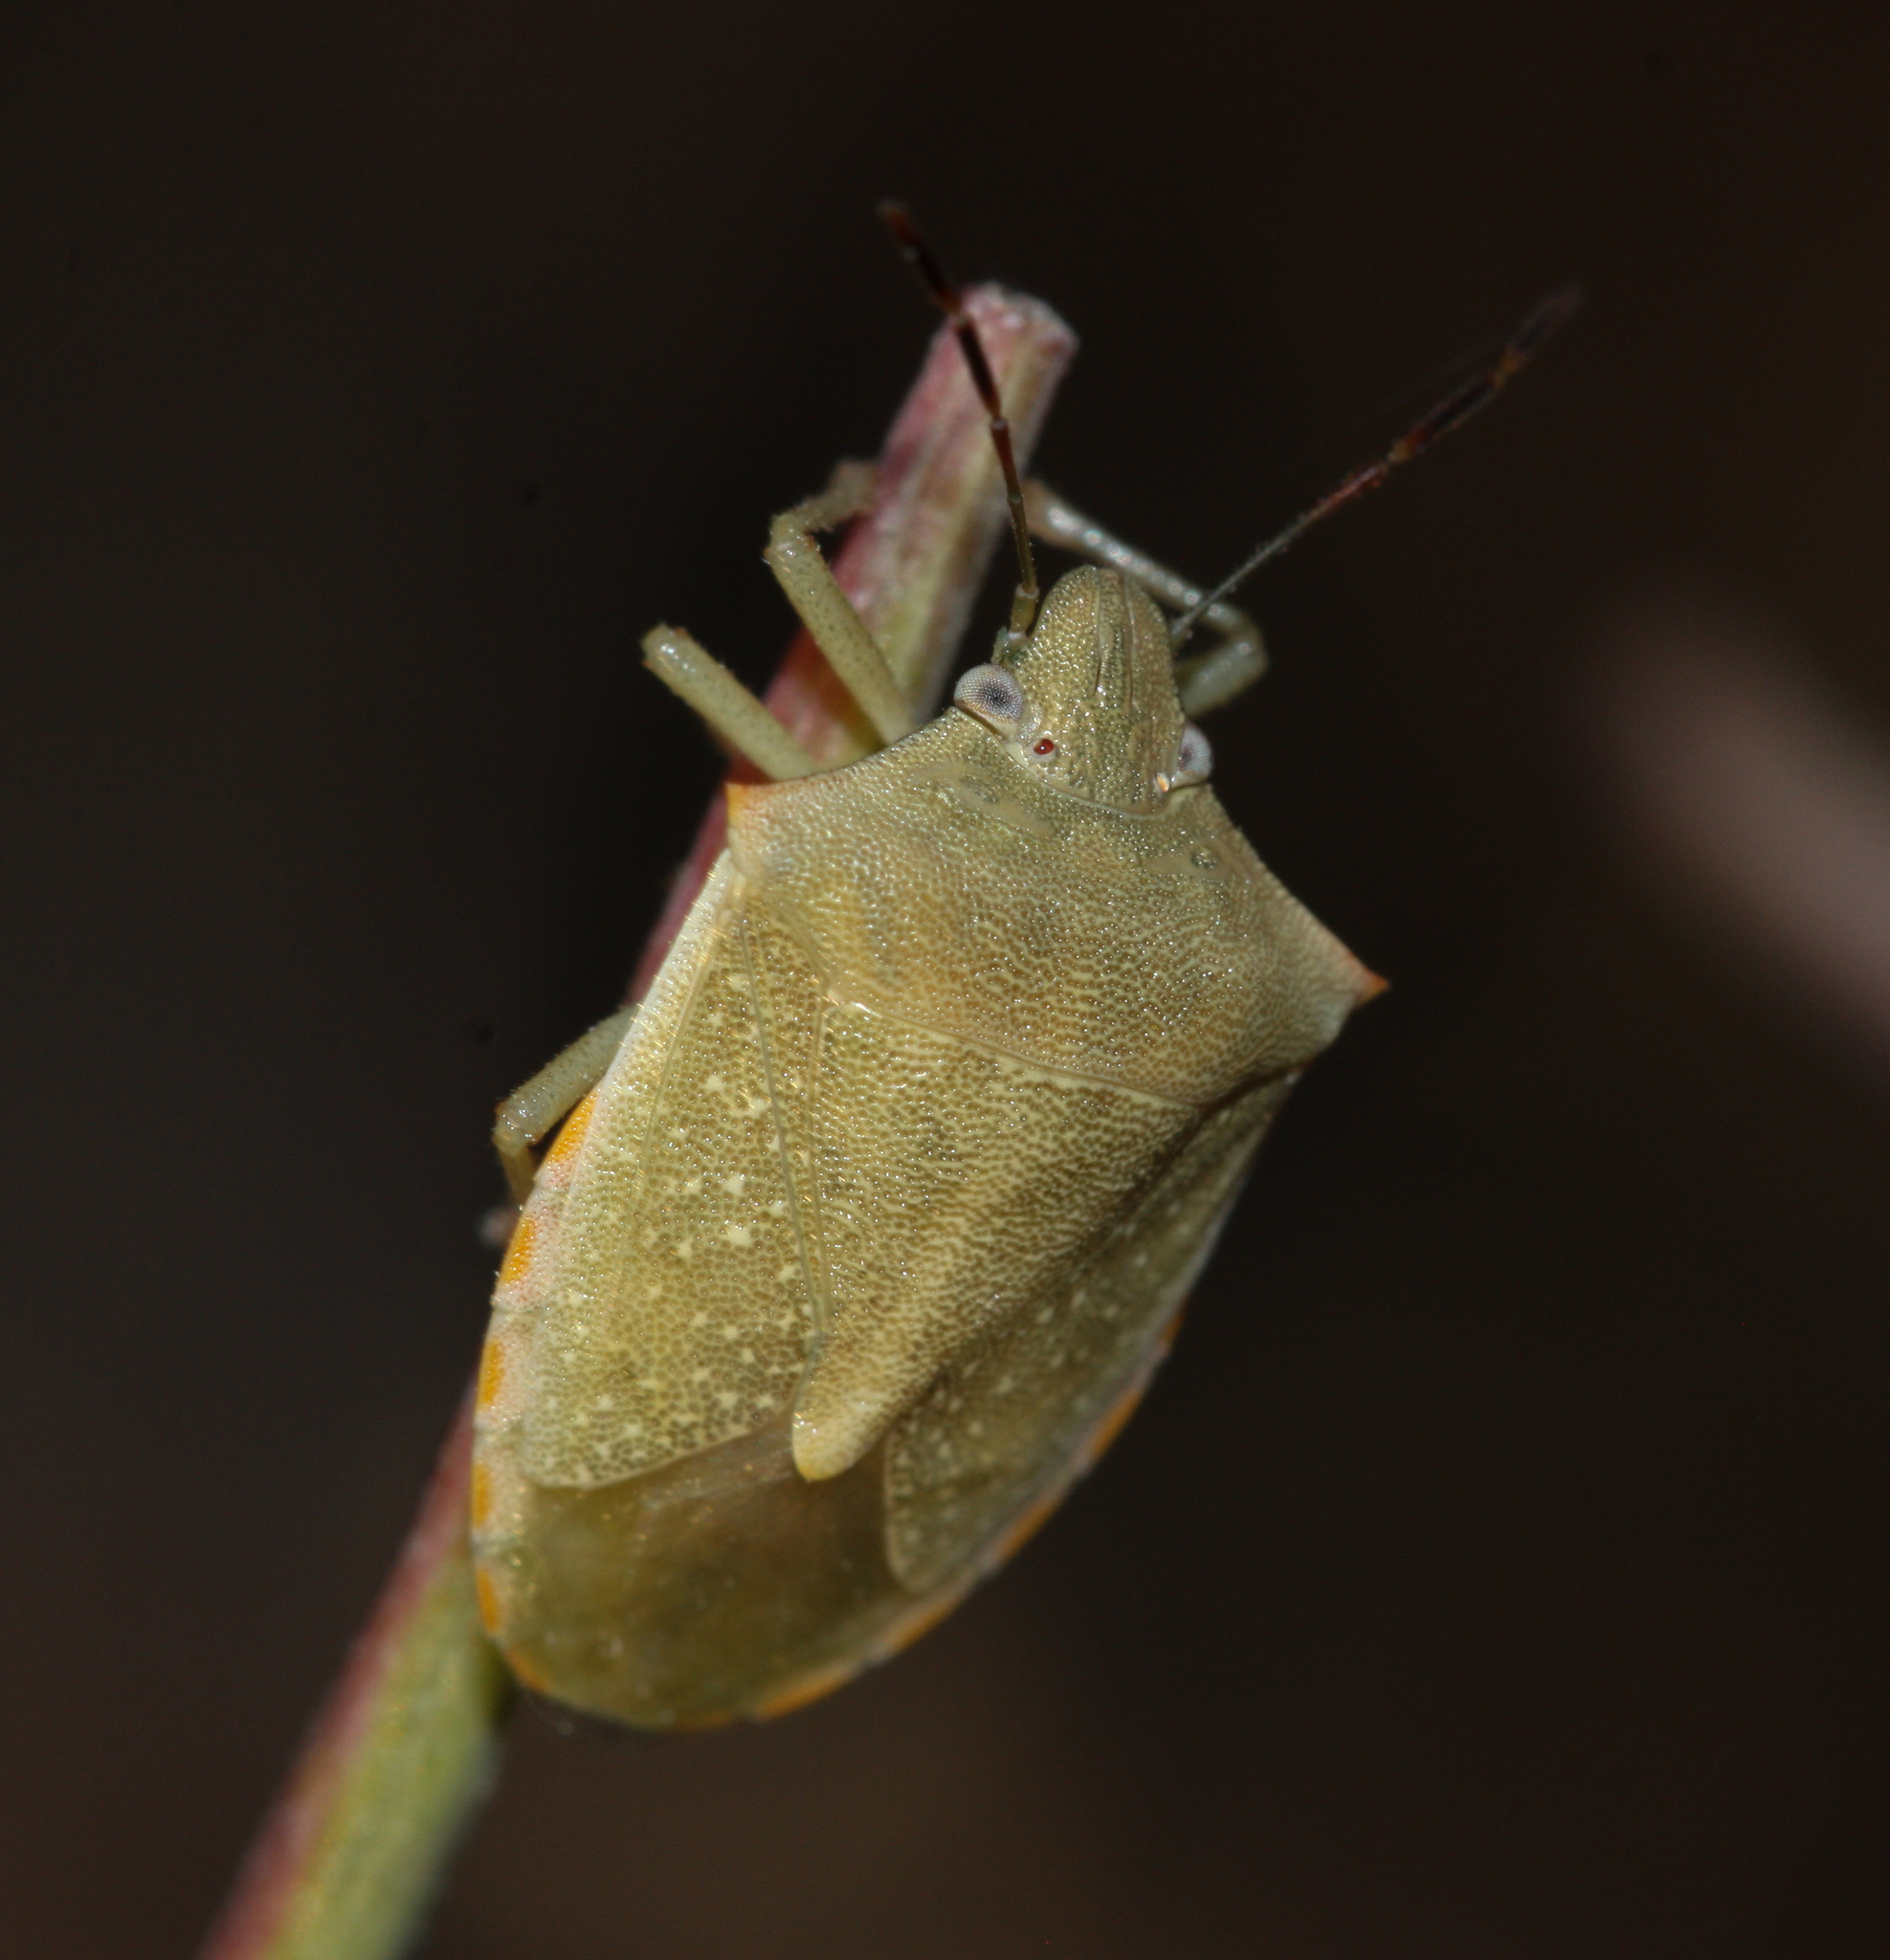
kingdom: Animalia
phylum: Arthropoda
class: Insecta
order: Hemiptera
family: Pentatomidae
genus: Thyanta
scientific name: Thyanta accerra
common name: Stink bug
